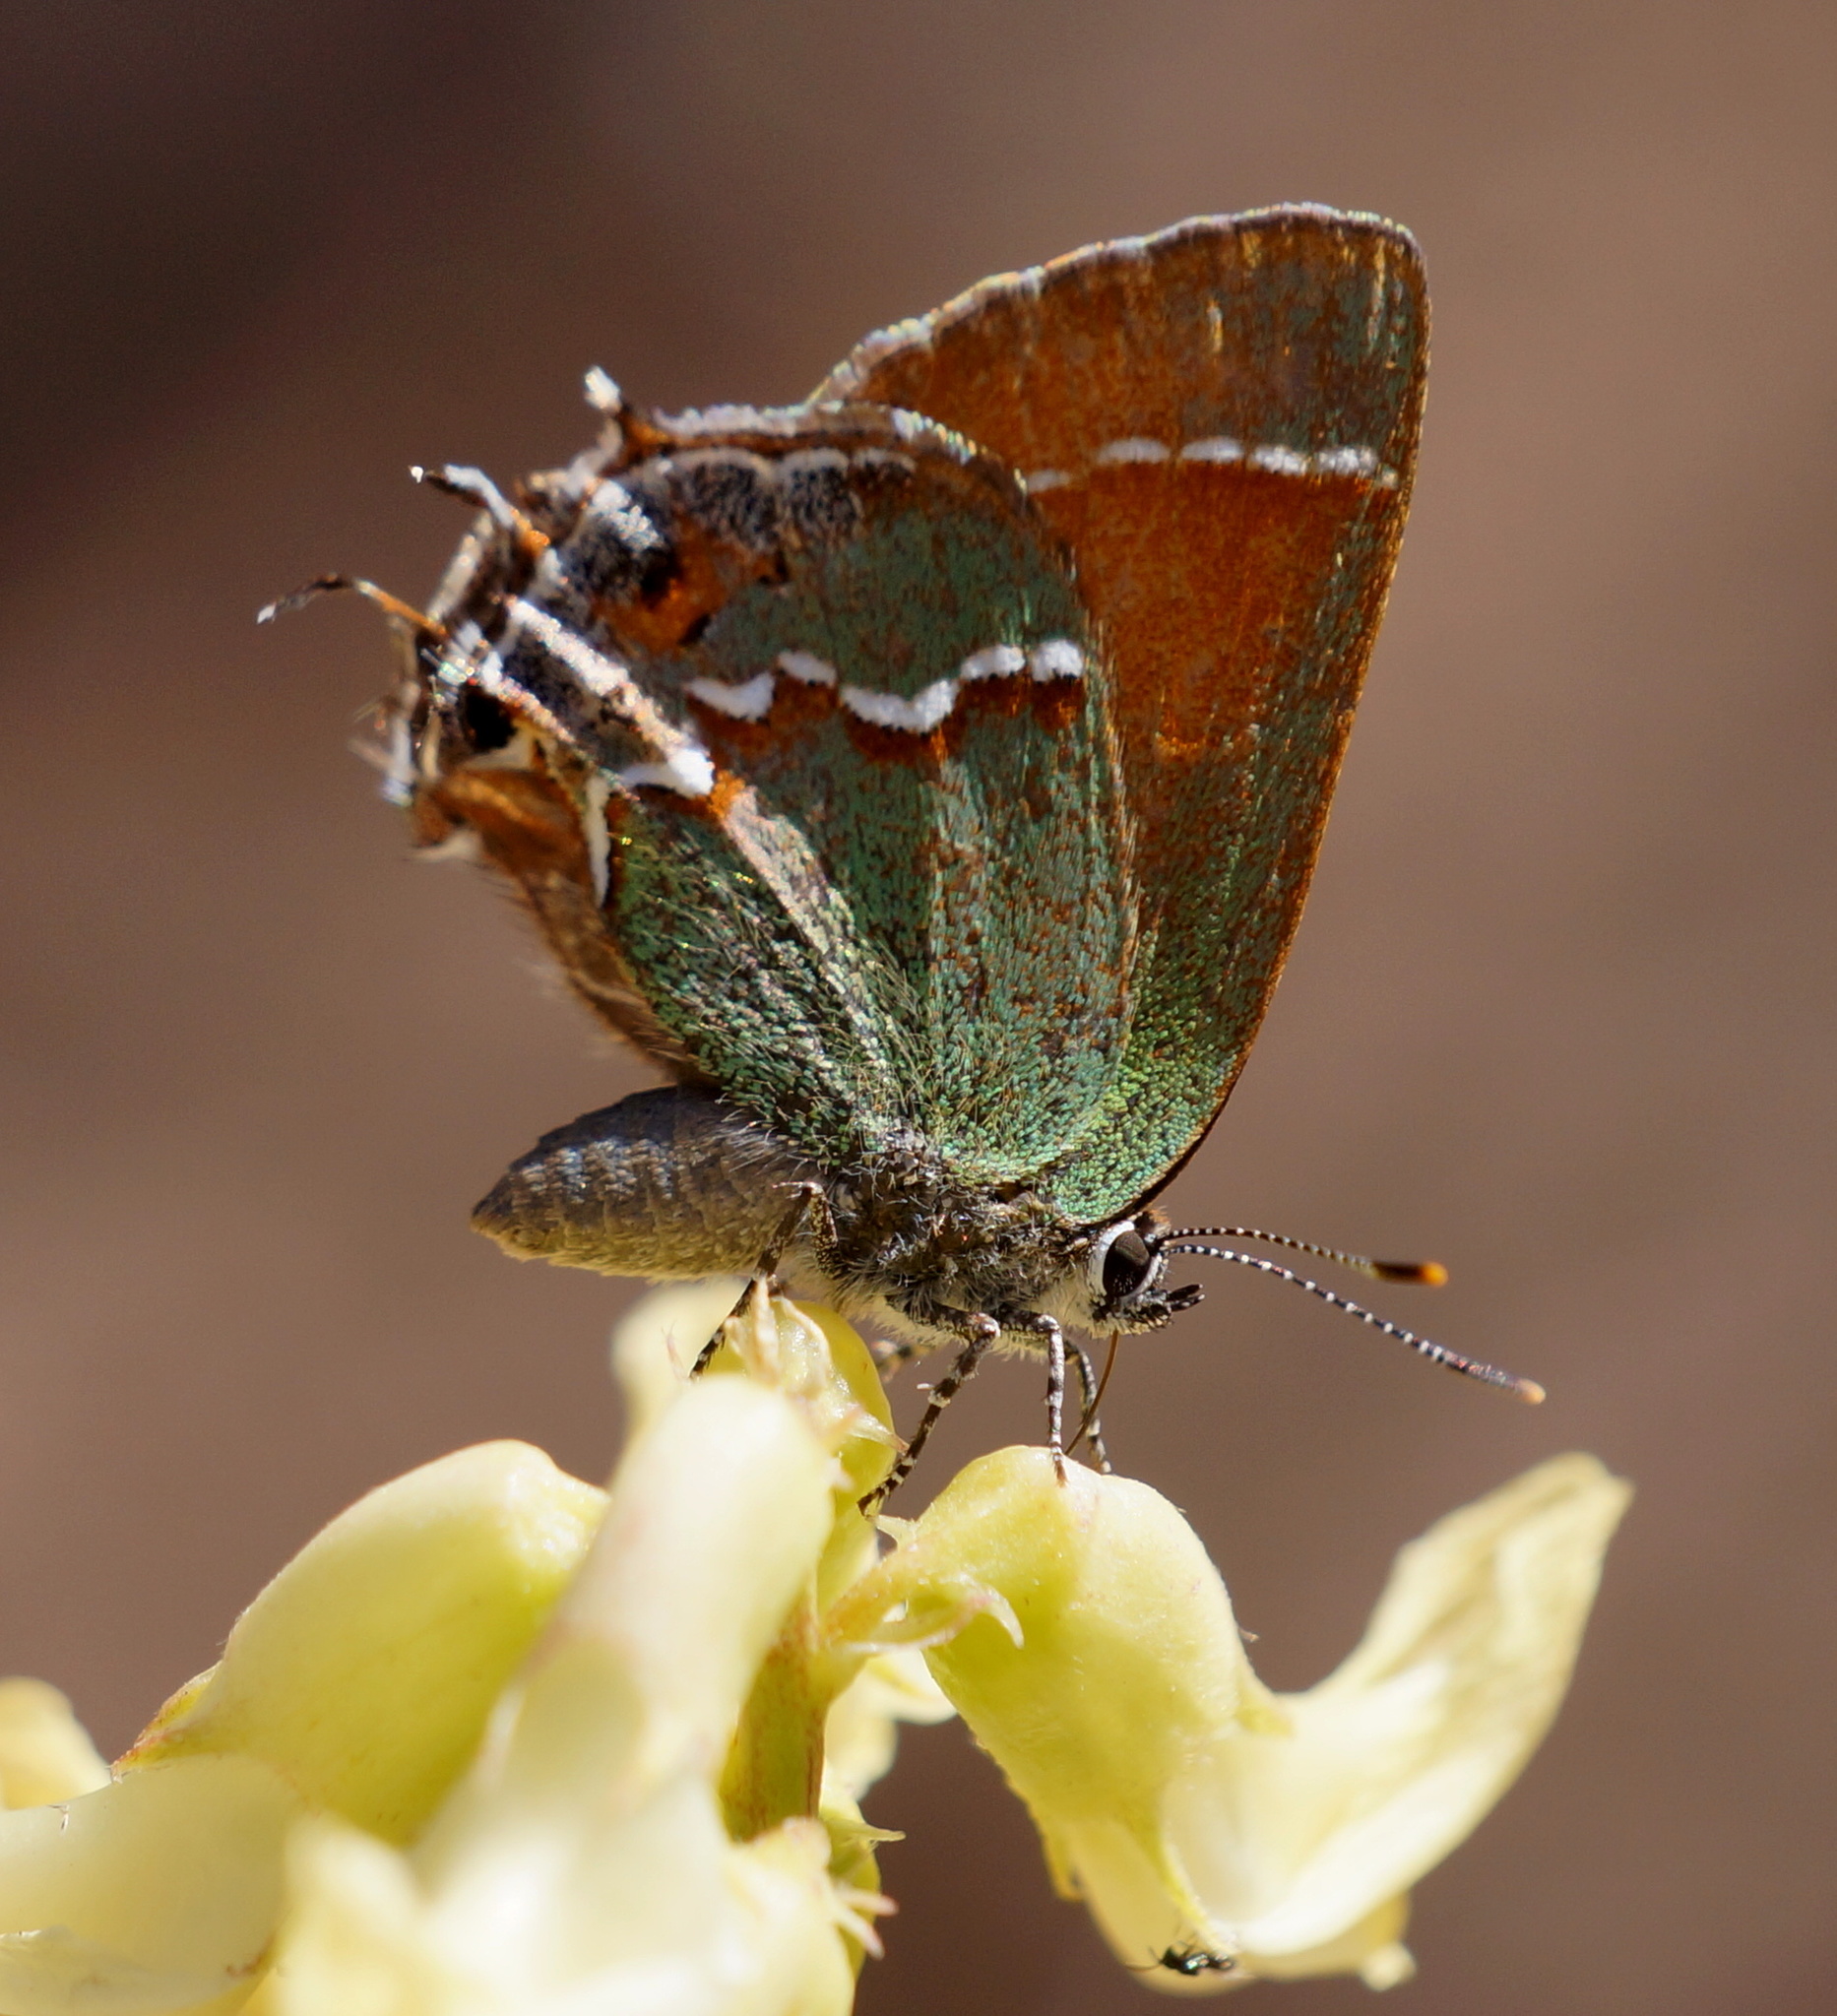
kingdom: Animalia
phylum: Arthropoda
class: Insecta
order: Lepidoptera
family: Lycaenidae
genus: Mitoura
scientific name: Mitoura gryneus
